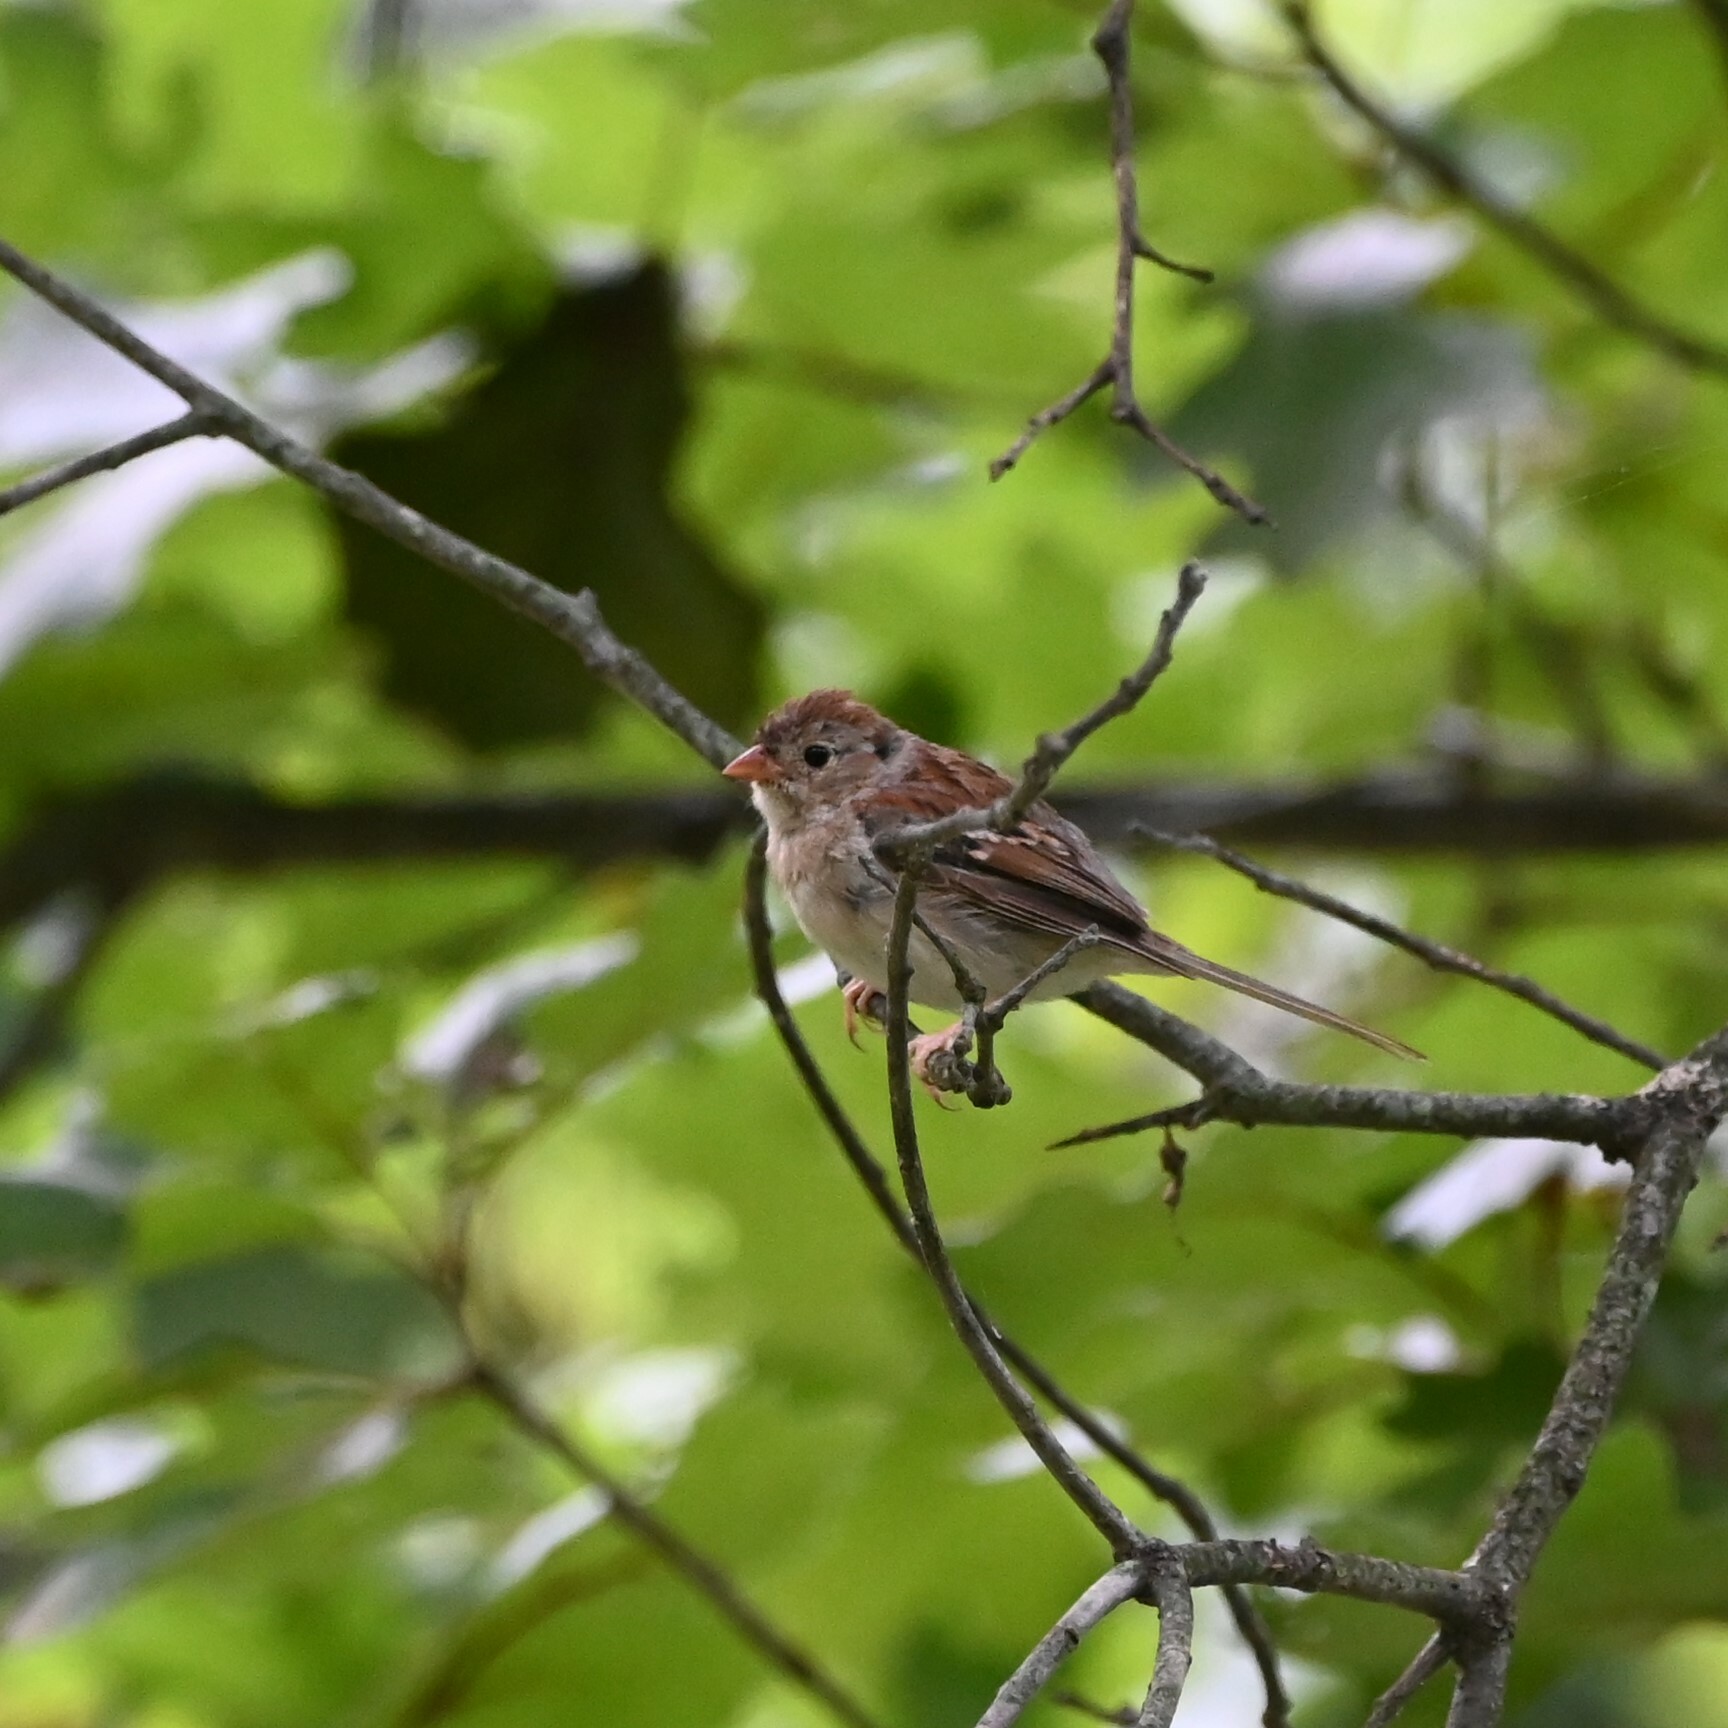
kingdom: Animalia
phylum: Chordata
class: Aves
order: Passeriformes
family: Passerellidae
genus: Spizella
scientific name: Spizella pusilla
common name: Field sparrow
